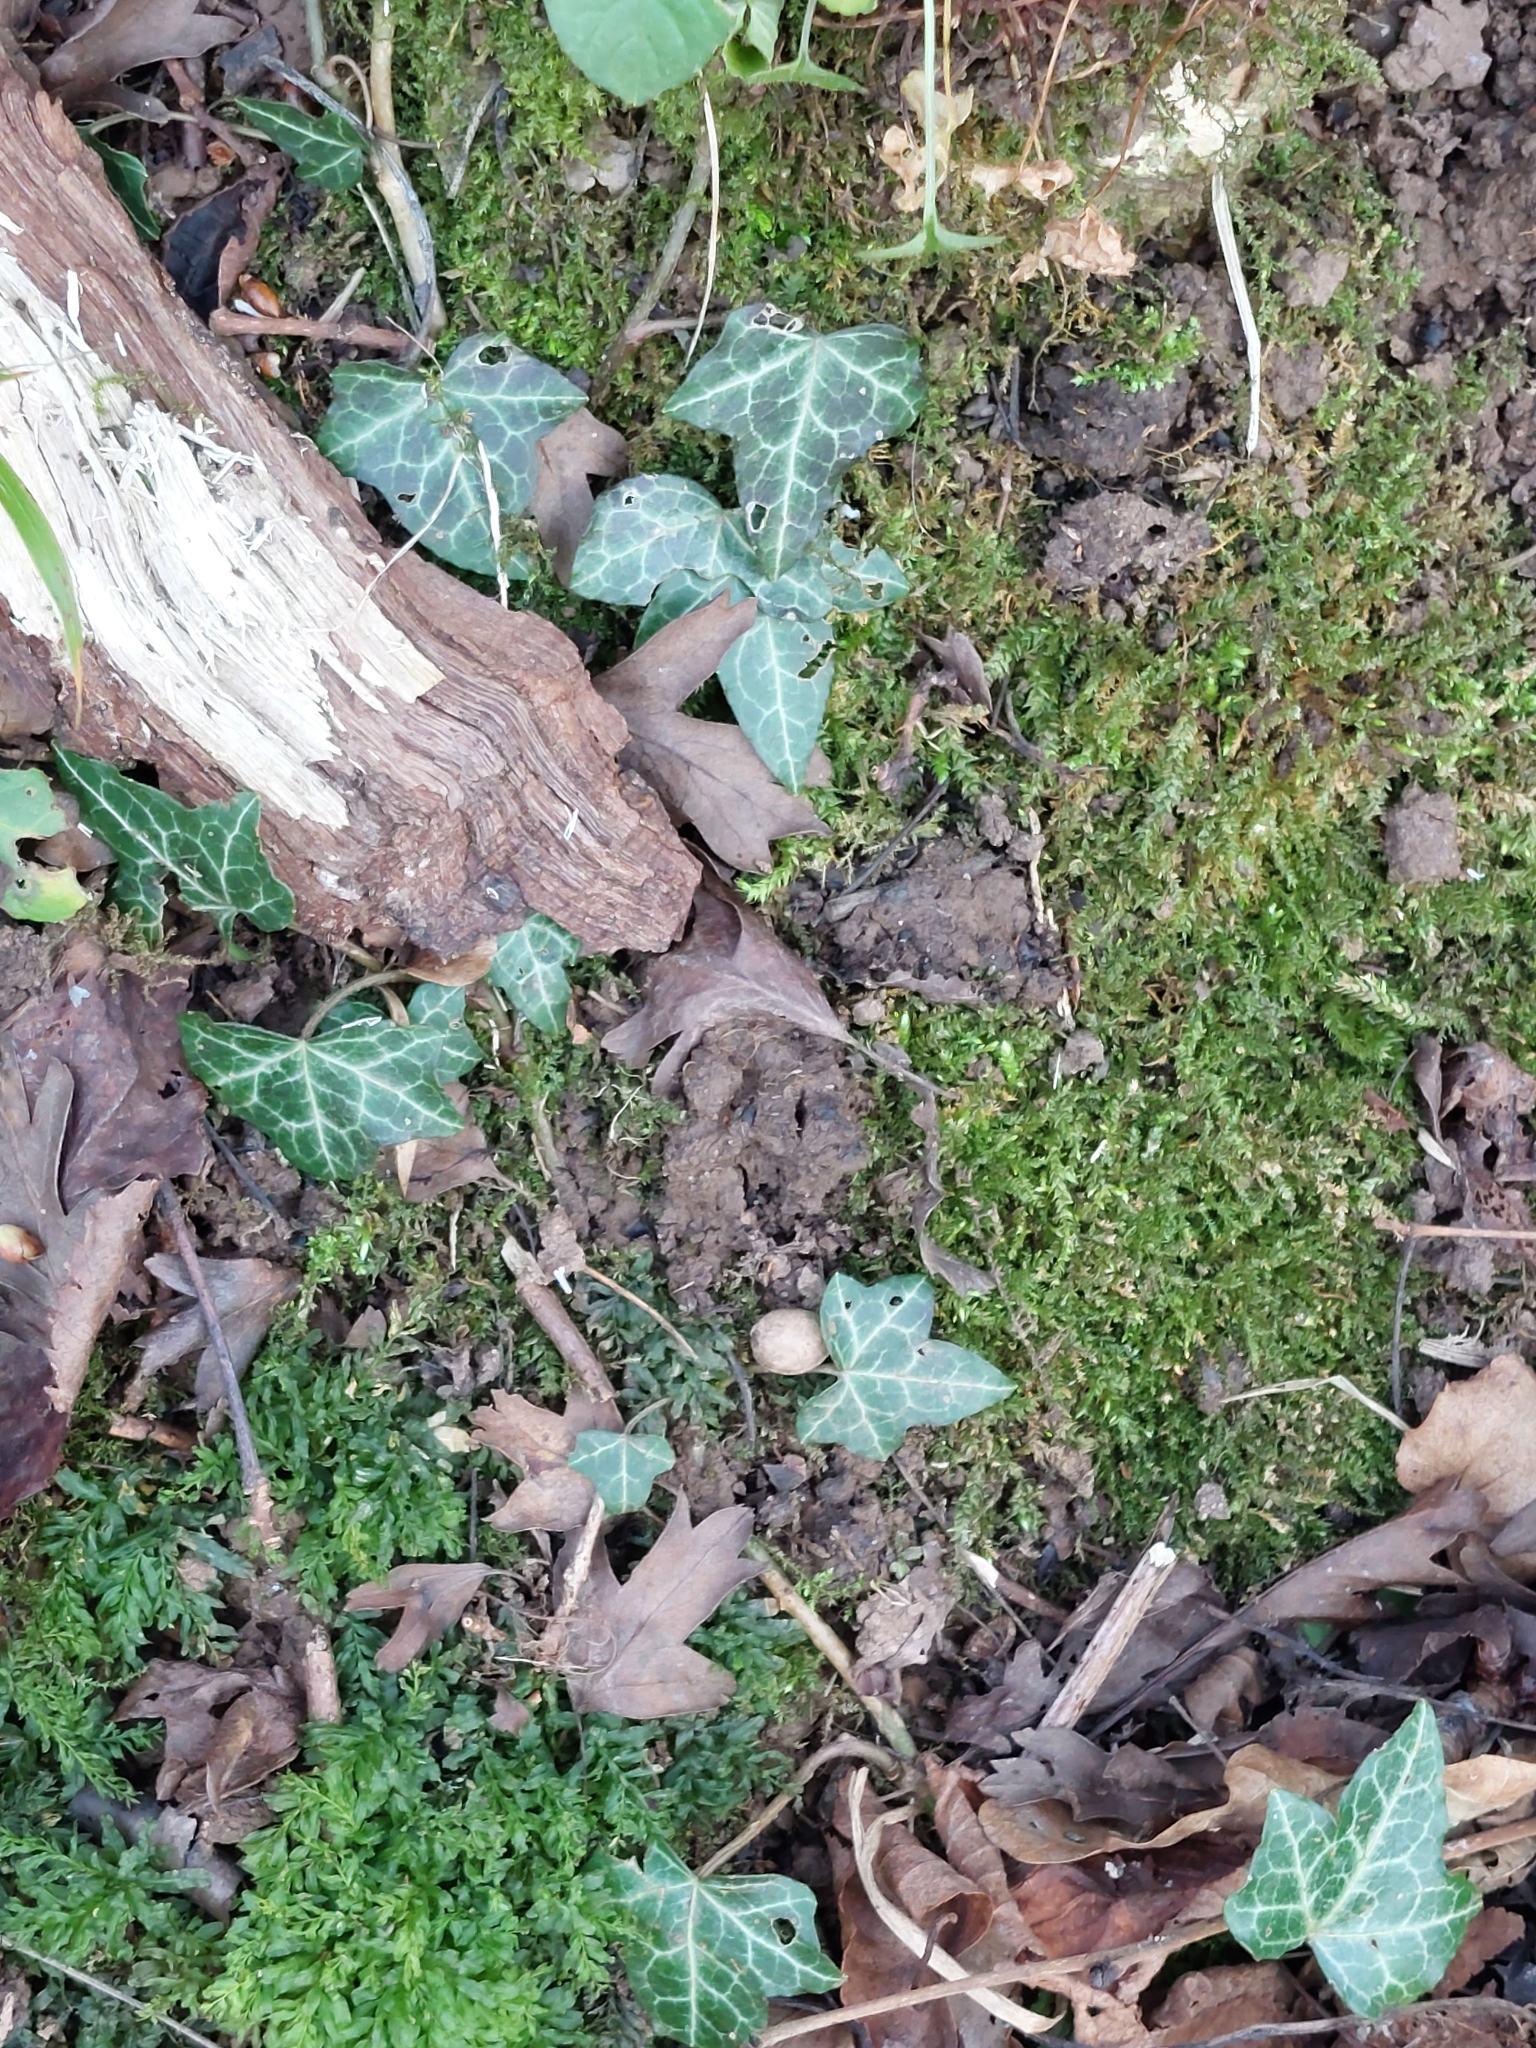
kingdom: Plantae
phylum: Tracheophyta
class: Magnoliopsida
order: Apiales
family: Araliaceae
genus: Hedera
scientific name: Hedera helix
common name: Ivy
